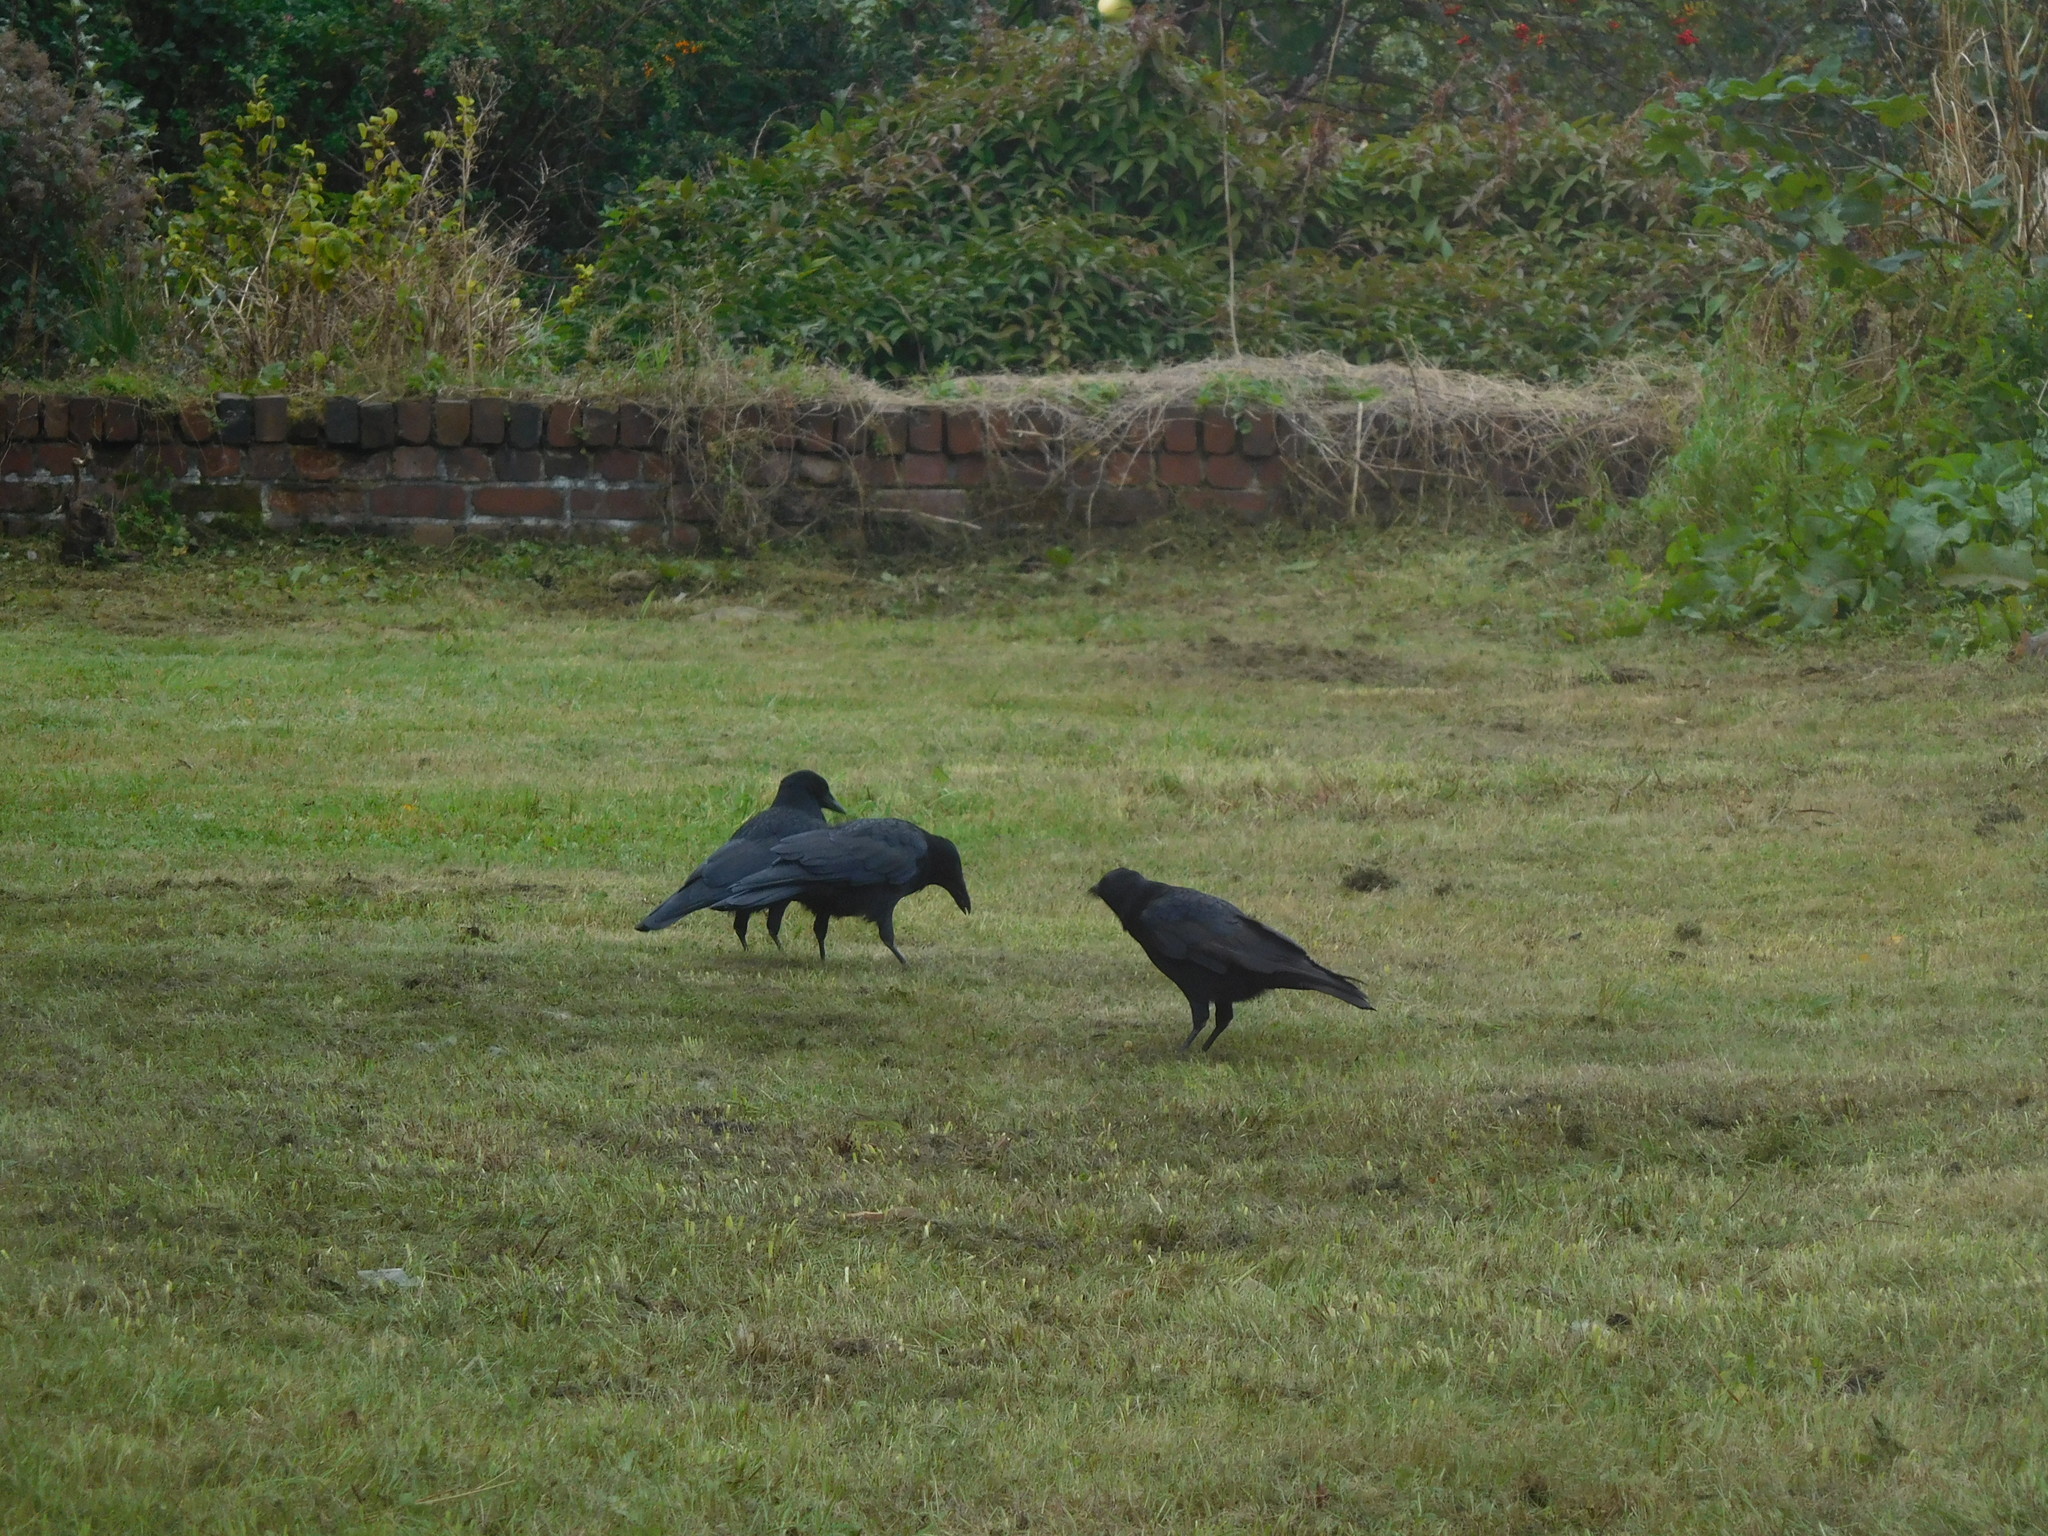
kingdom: Animalia
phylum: Chordata
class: Aves
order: Passeriformes
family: Corvidae
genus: Corvus
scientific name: Corvus corone
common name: Carrion crow
